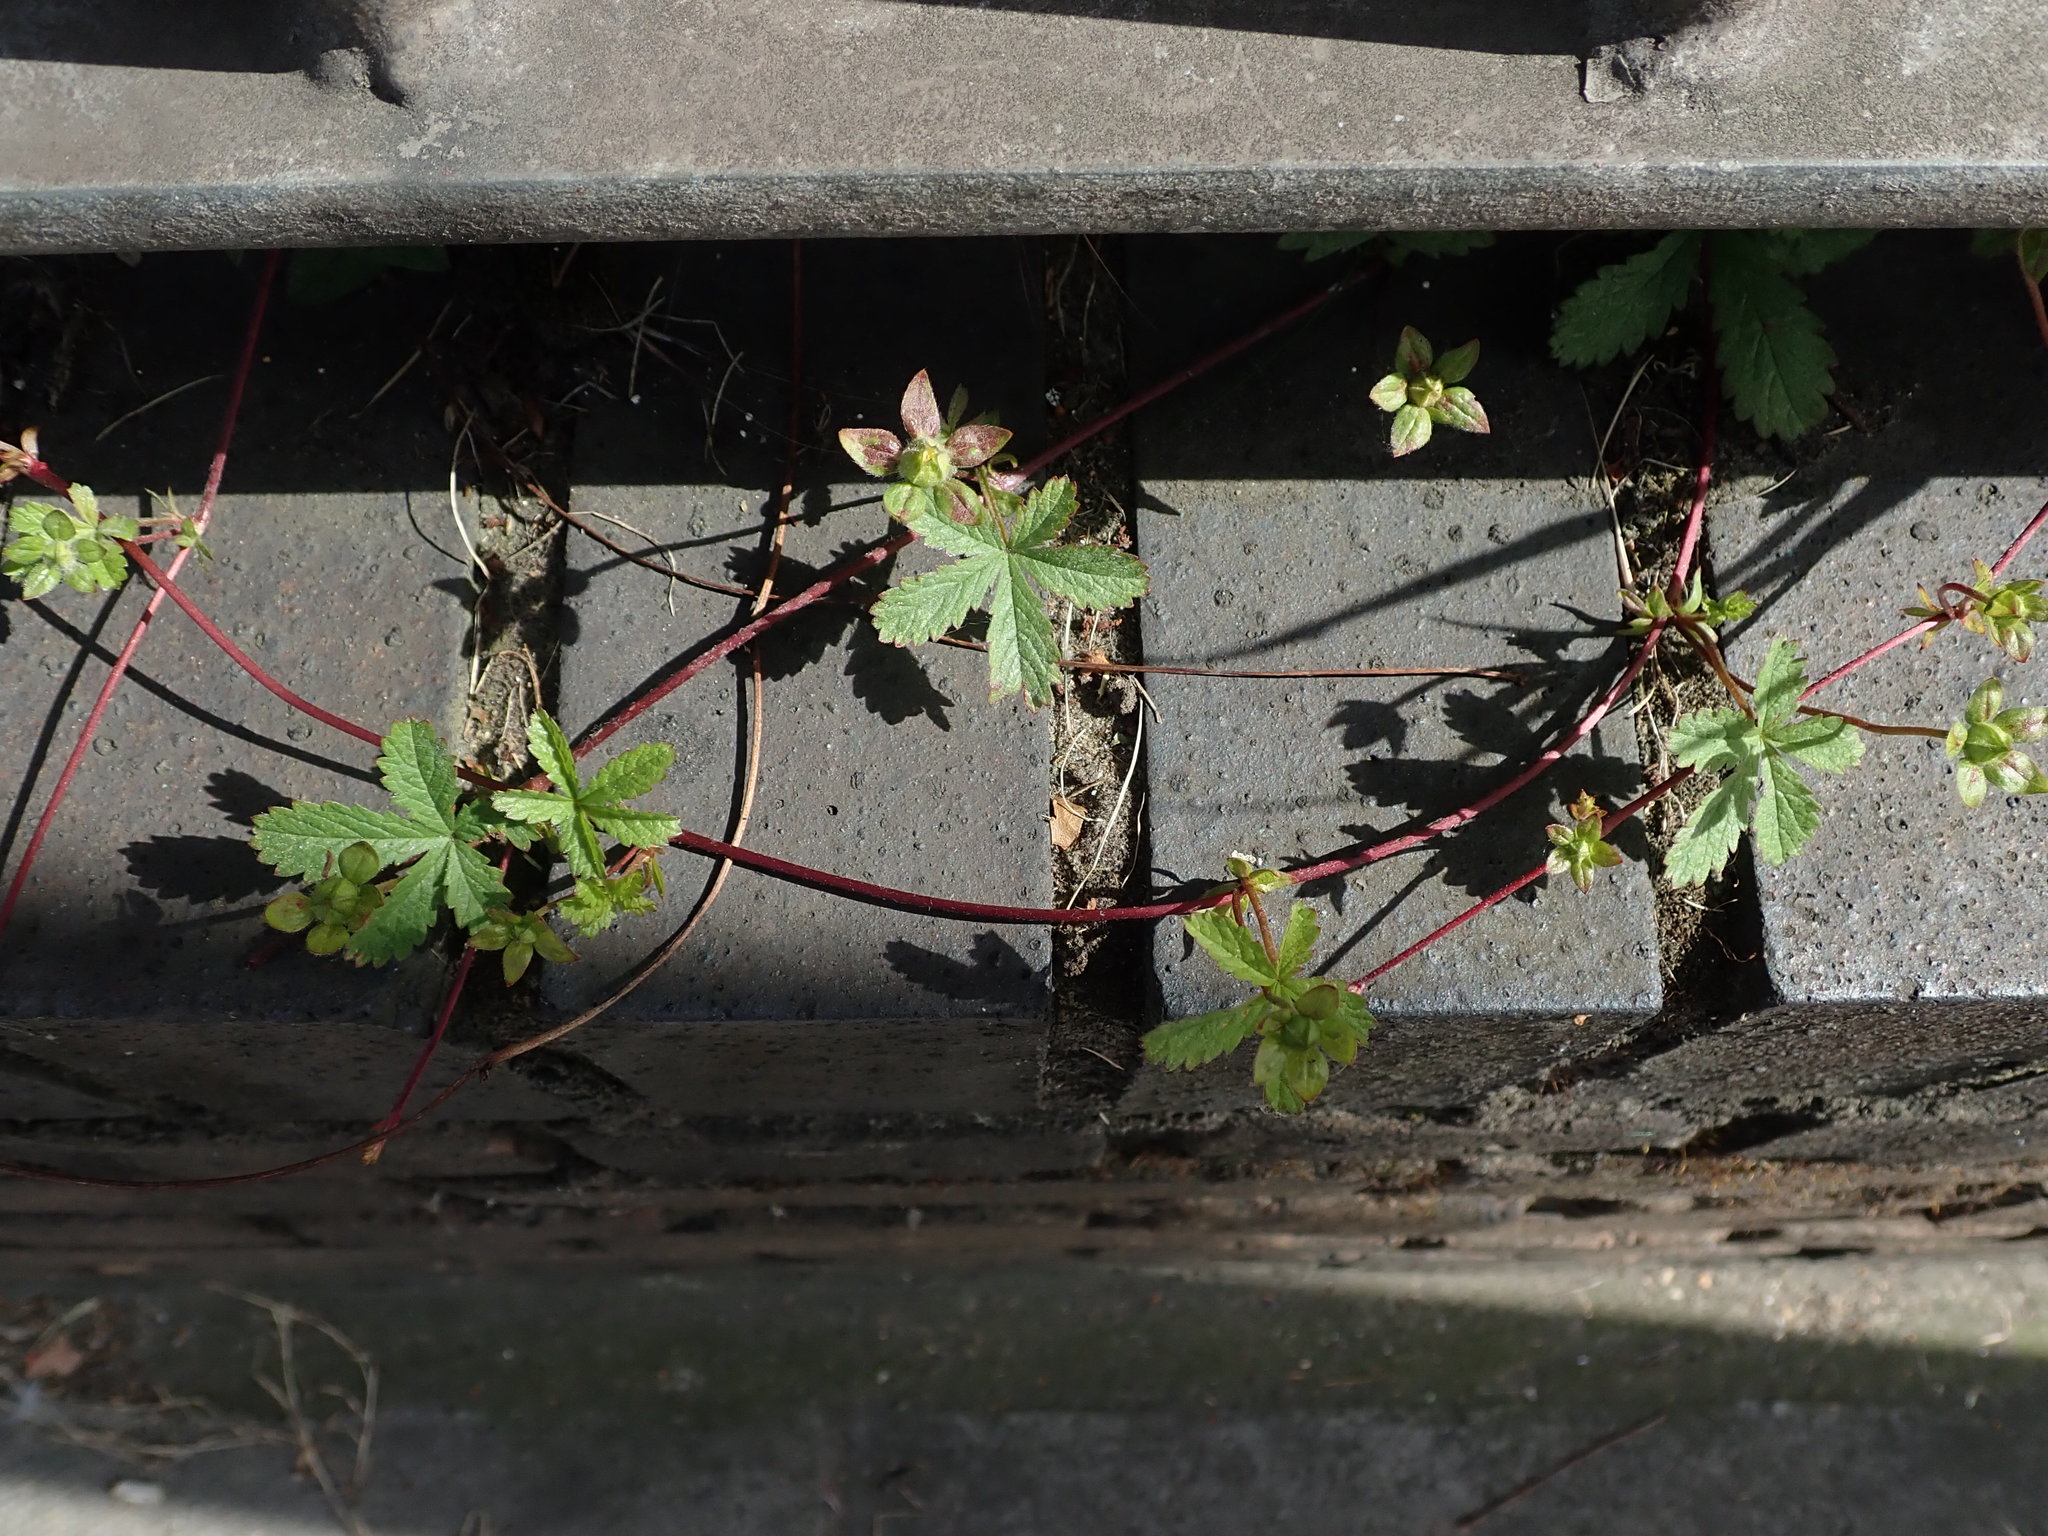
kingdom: Plantae
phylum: Tracheophyta
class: Magnoliopsida
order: Rosales
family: Rosaceae
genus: Potentilla
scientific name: Potentilla reptans
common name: Creeping cinquefoil
